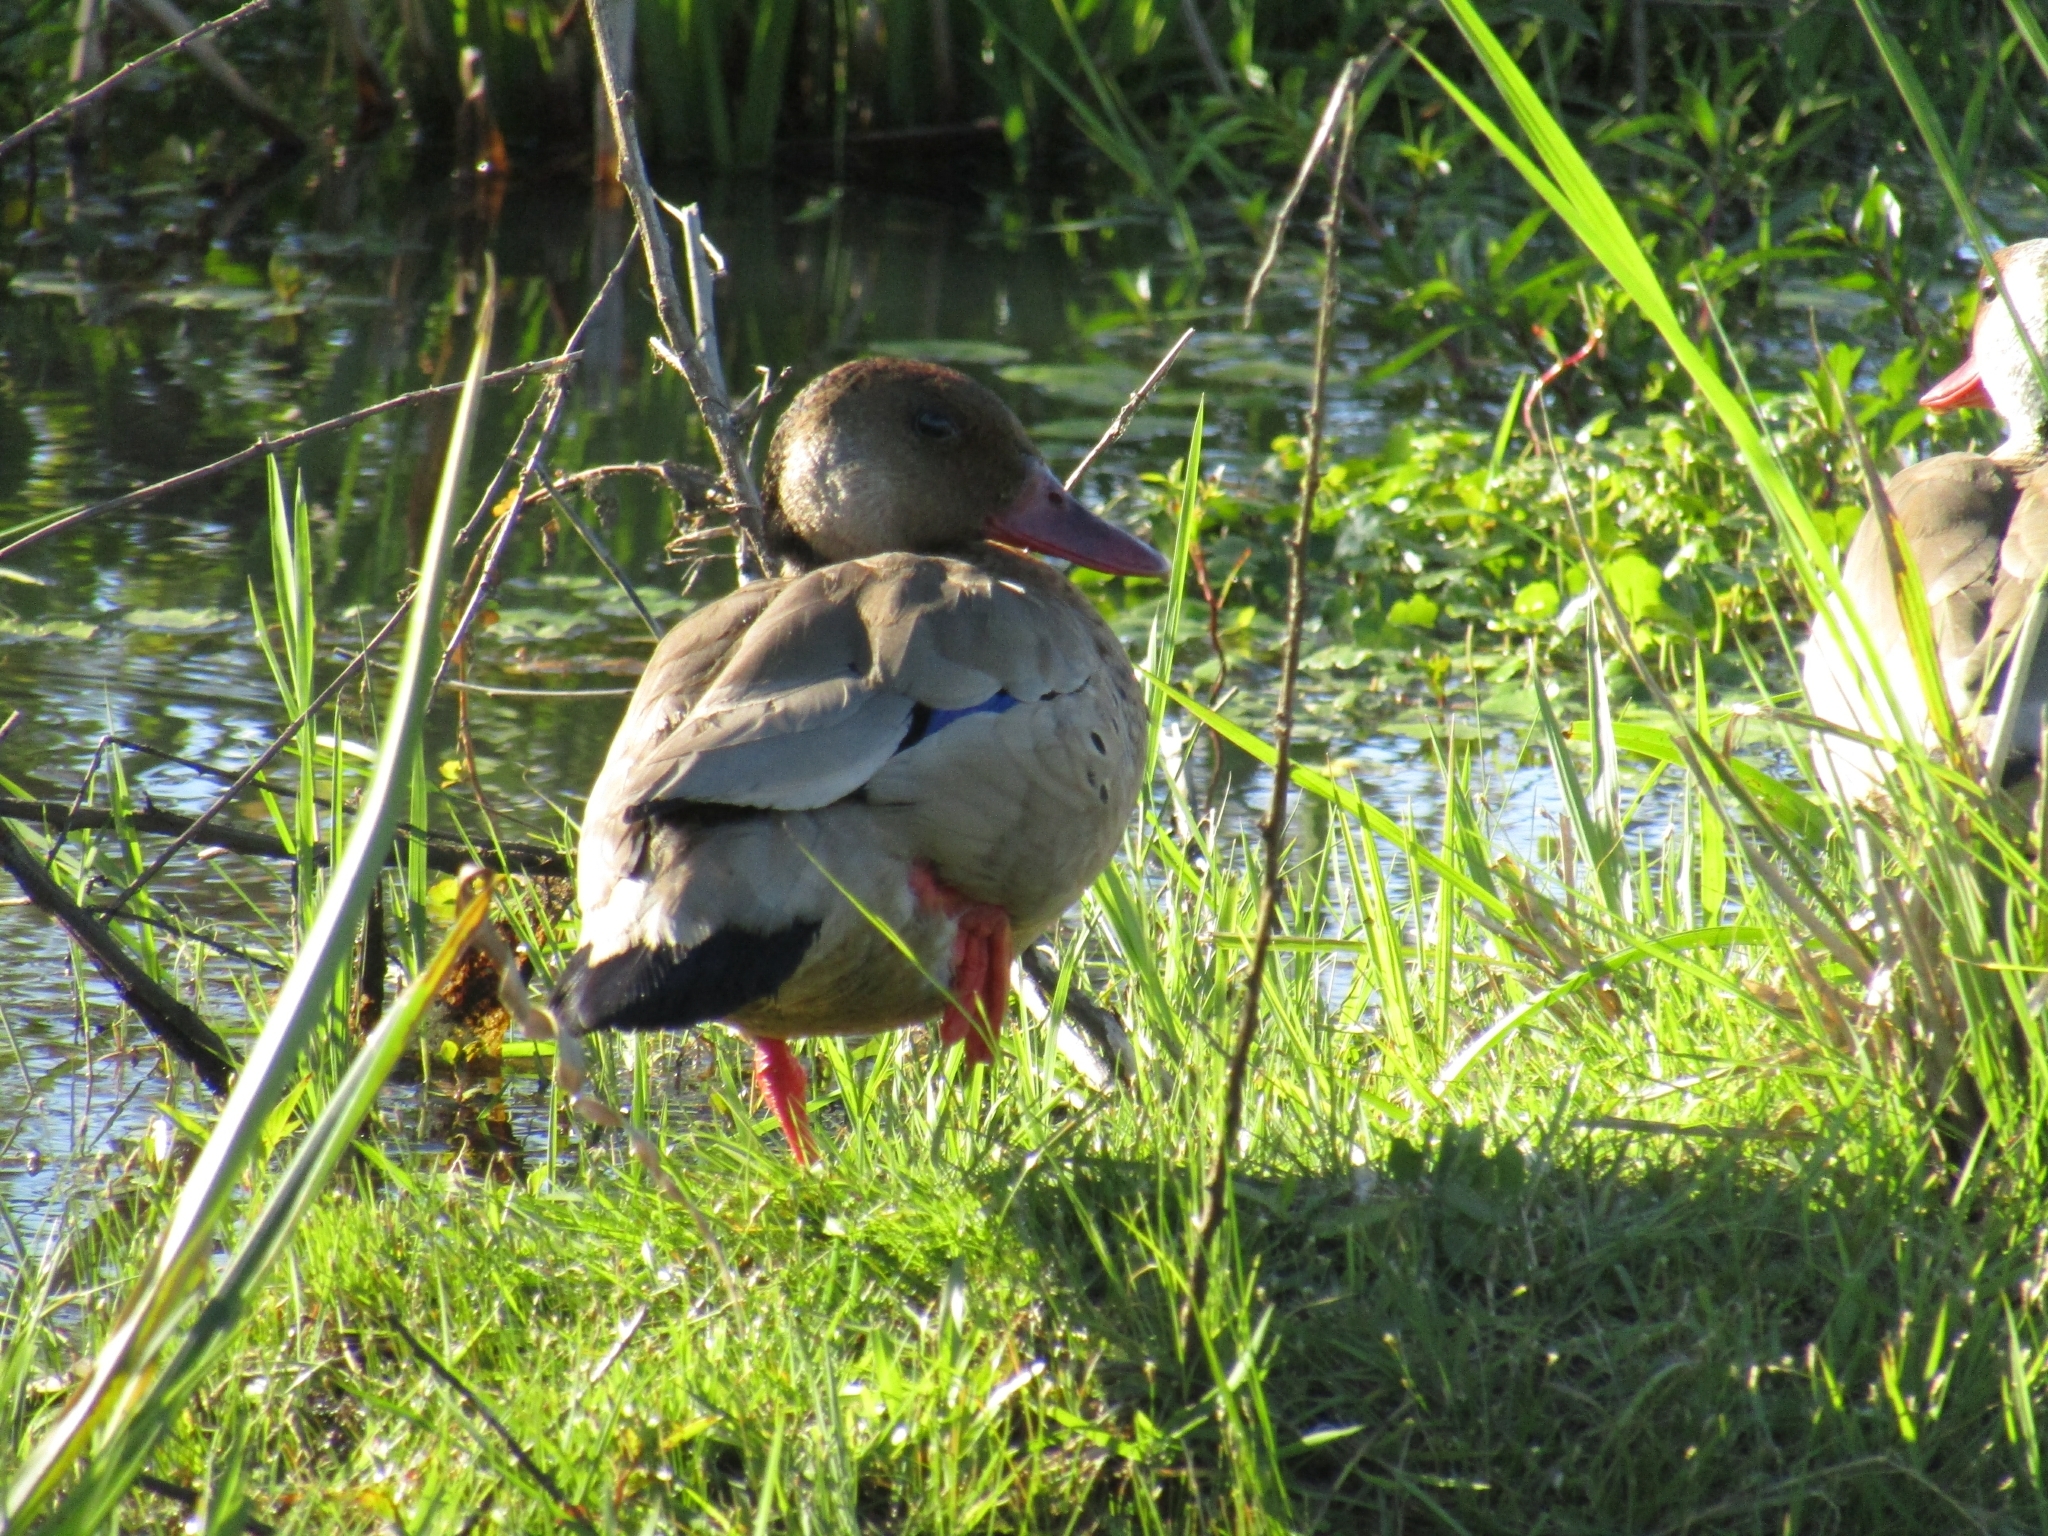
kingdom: Animalia
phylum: Chordata
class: Aves
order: Anseriformes
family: Anatidae
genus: Amazonetta
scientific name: Amazonetta brasiliensis
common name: Brazilian teal
